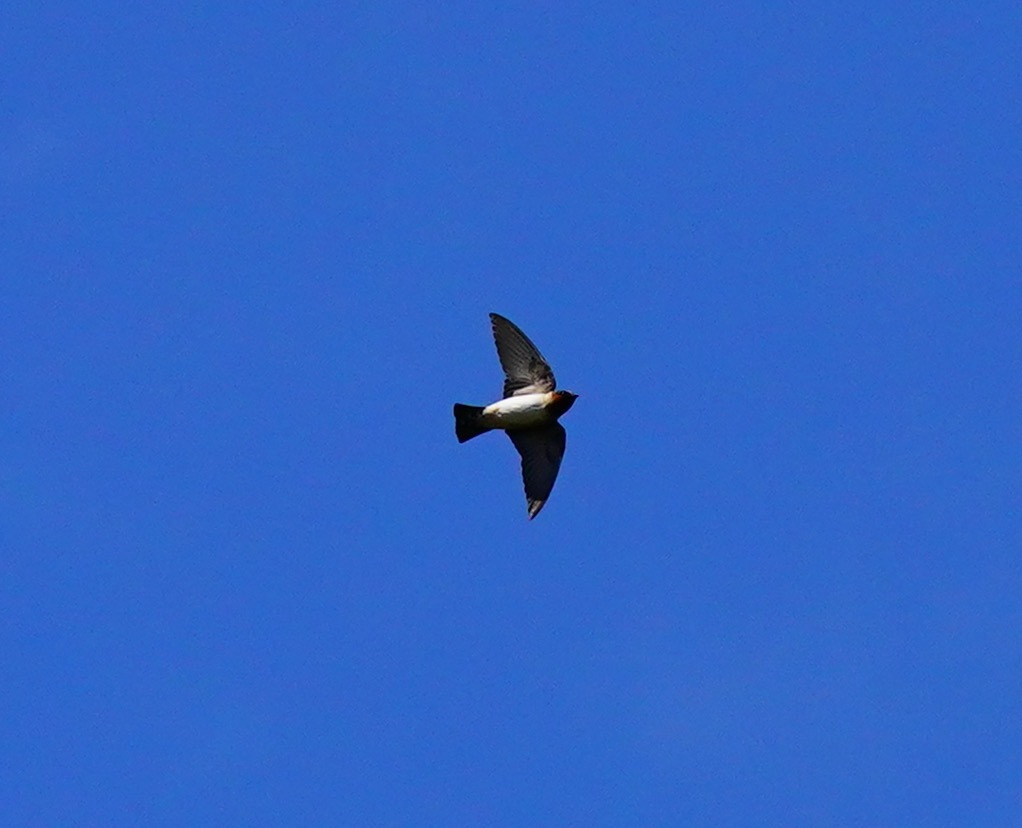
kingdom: Animalia
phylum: Chordata
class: Aves
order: Passeriformes
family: Hirundinidae
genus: Petrochelidon
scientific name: Petrochelidon pyrrhonota
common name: American cliff swallow
